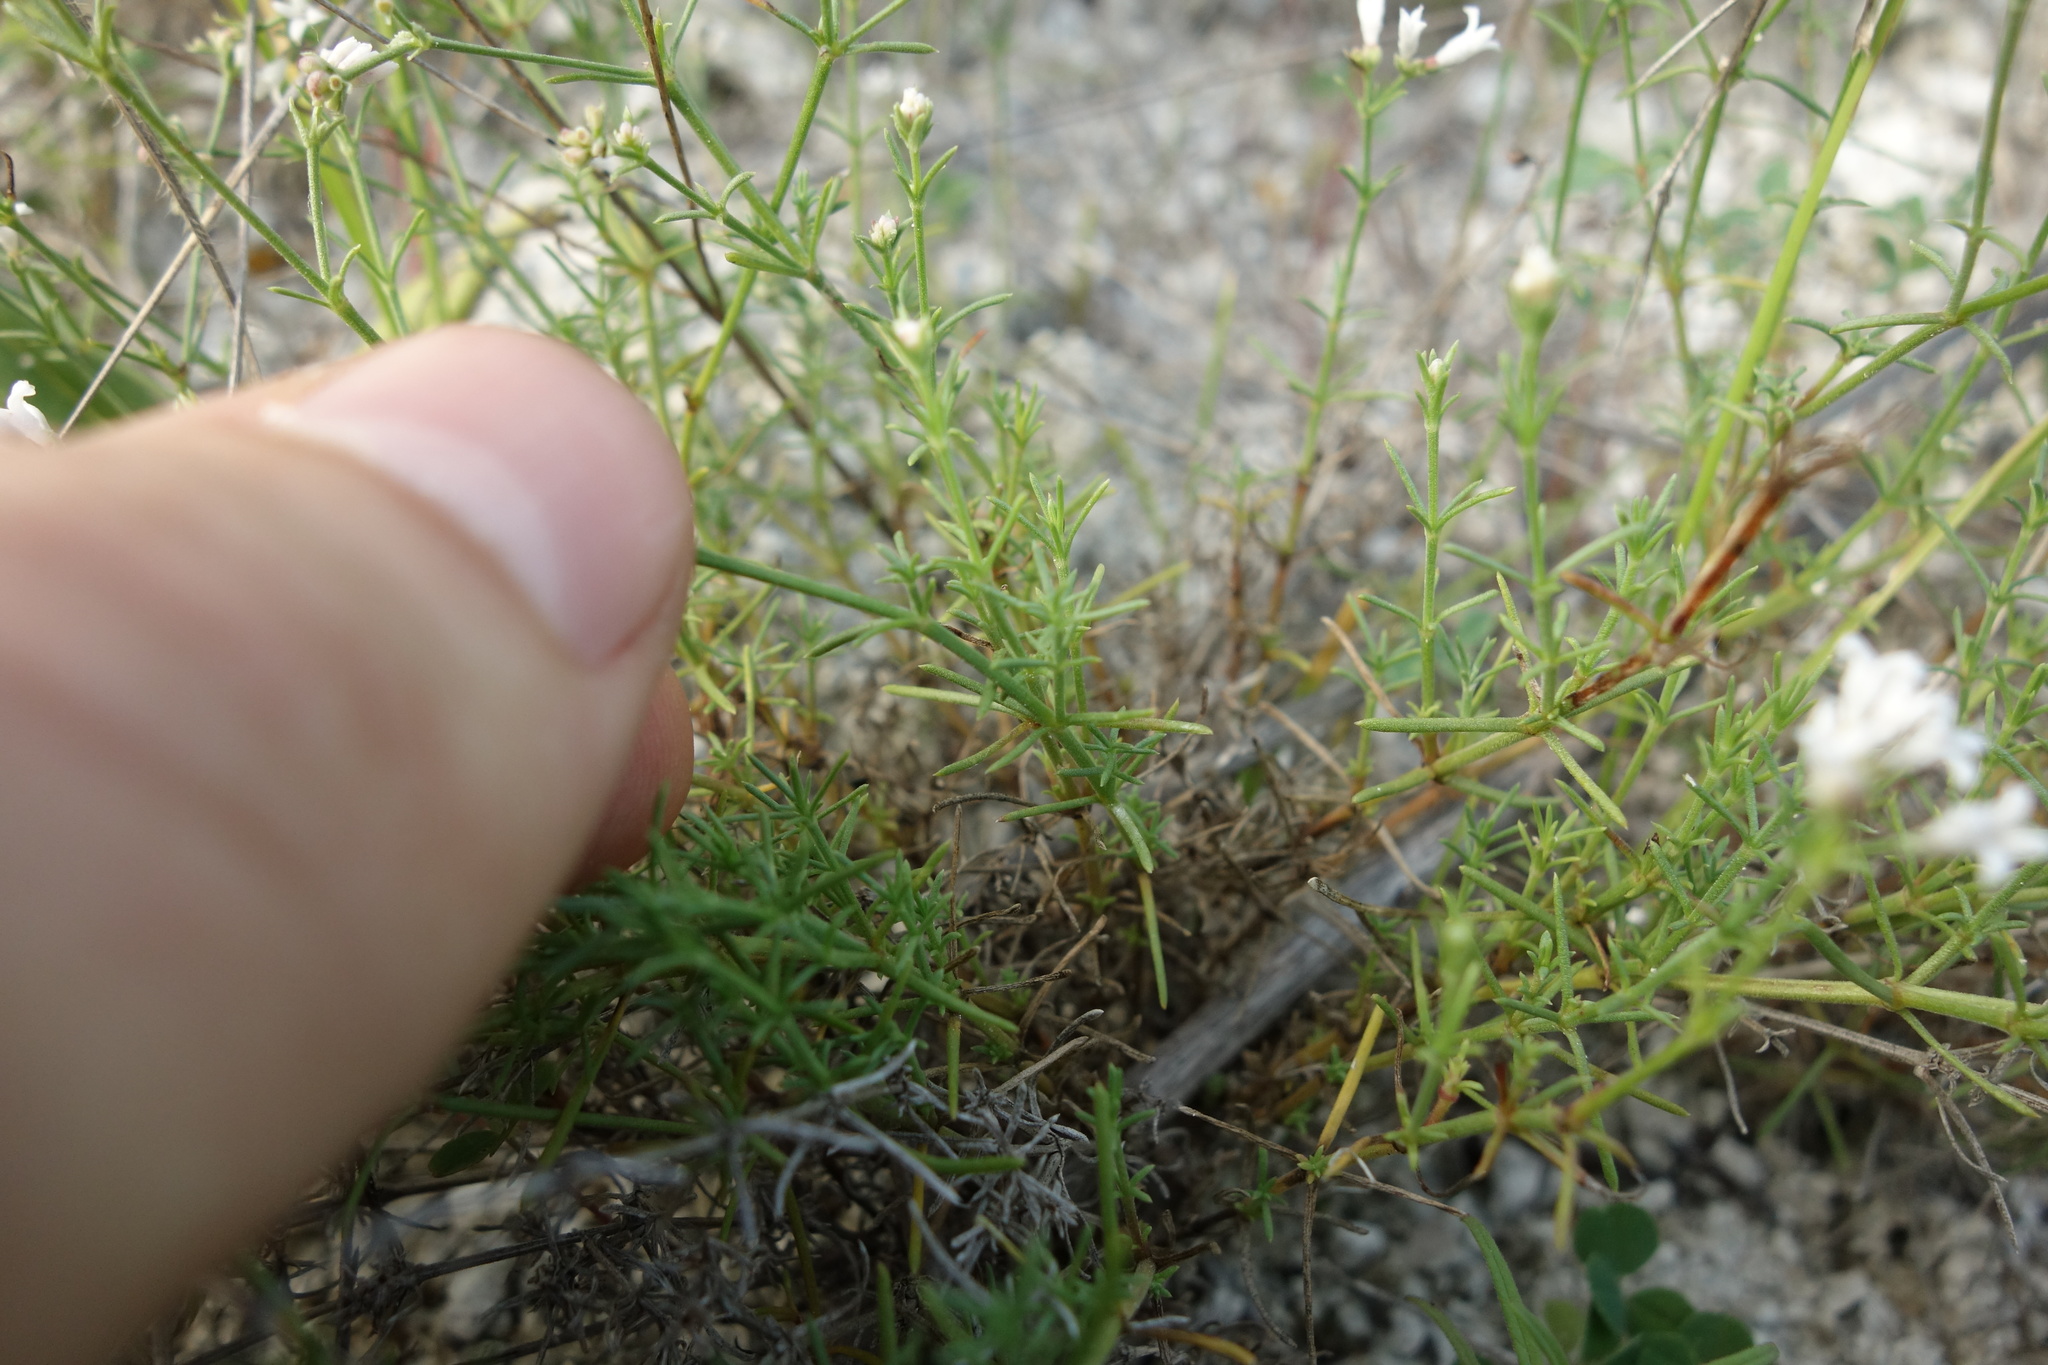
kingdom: Plantae
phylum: Tracheophyta
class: Magnoliopsida
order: Gentianales
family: Rubiaceae
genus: Cynanchica
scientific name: Cynanchica tephrocarpa
